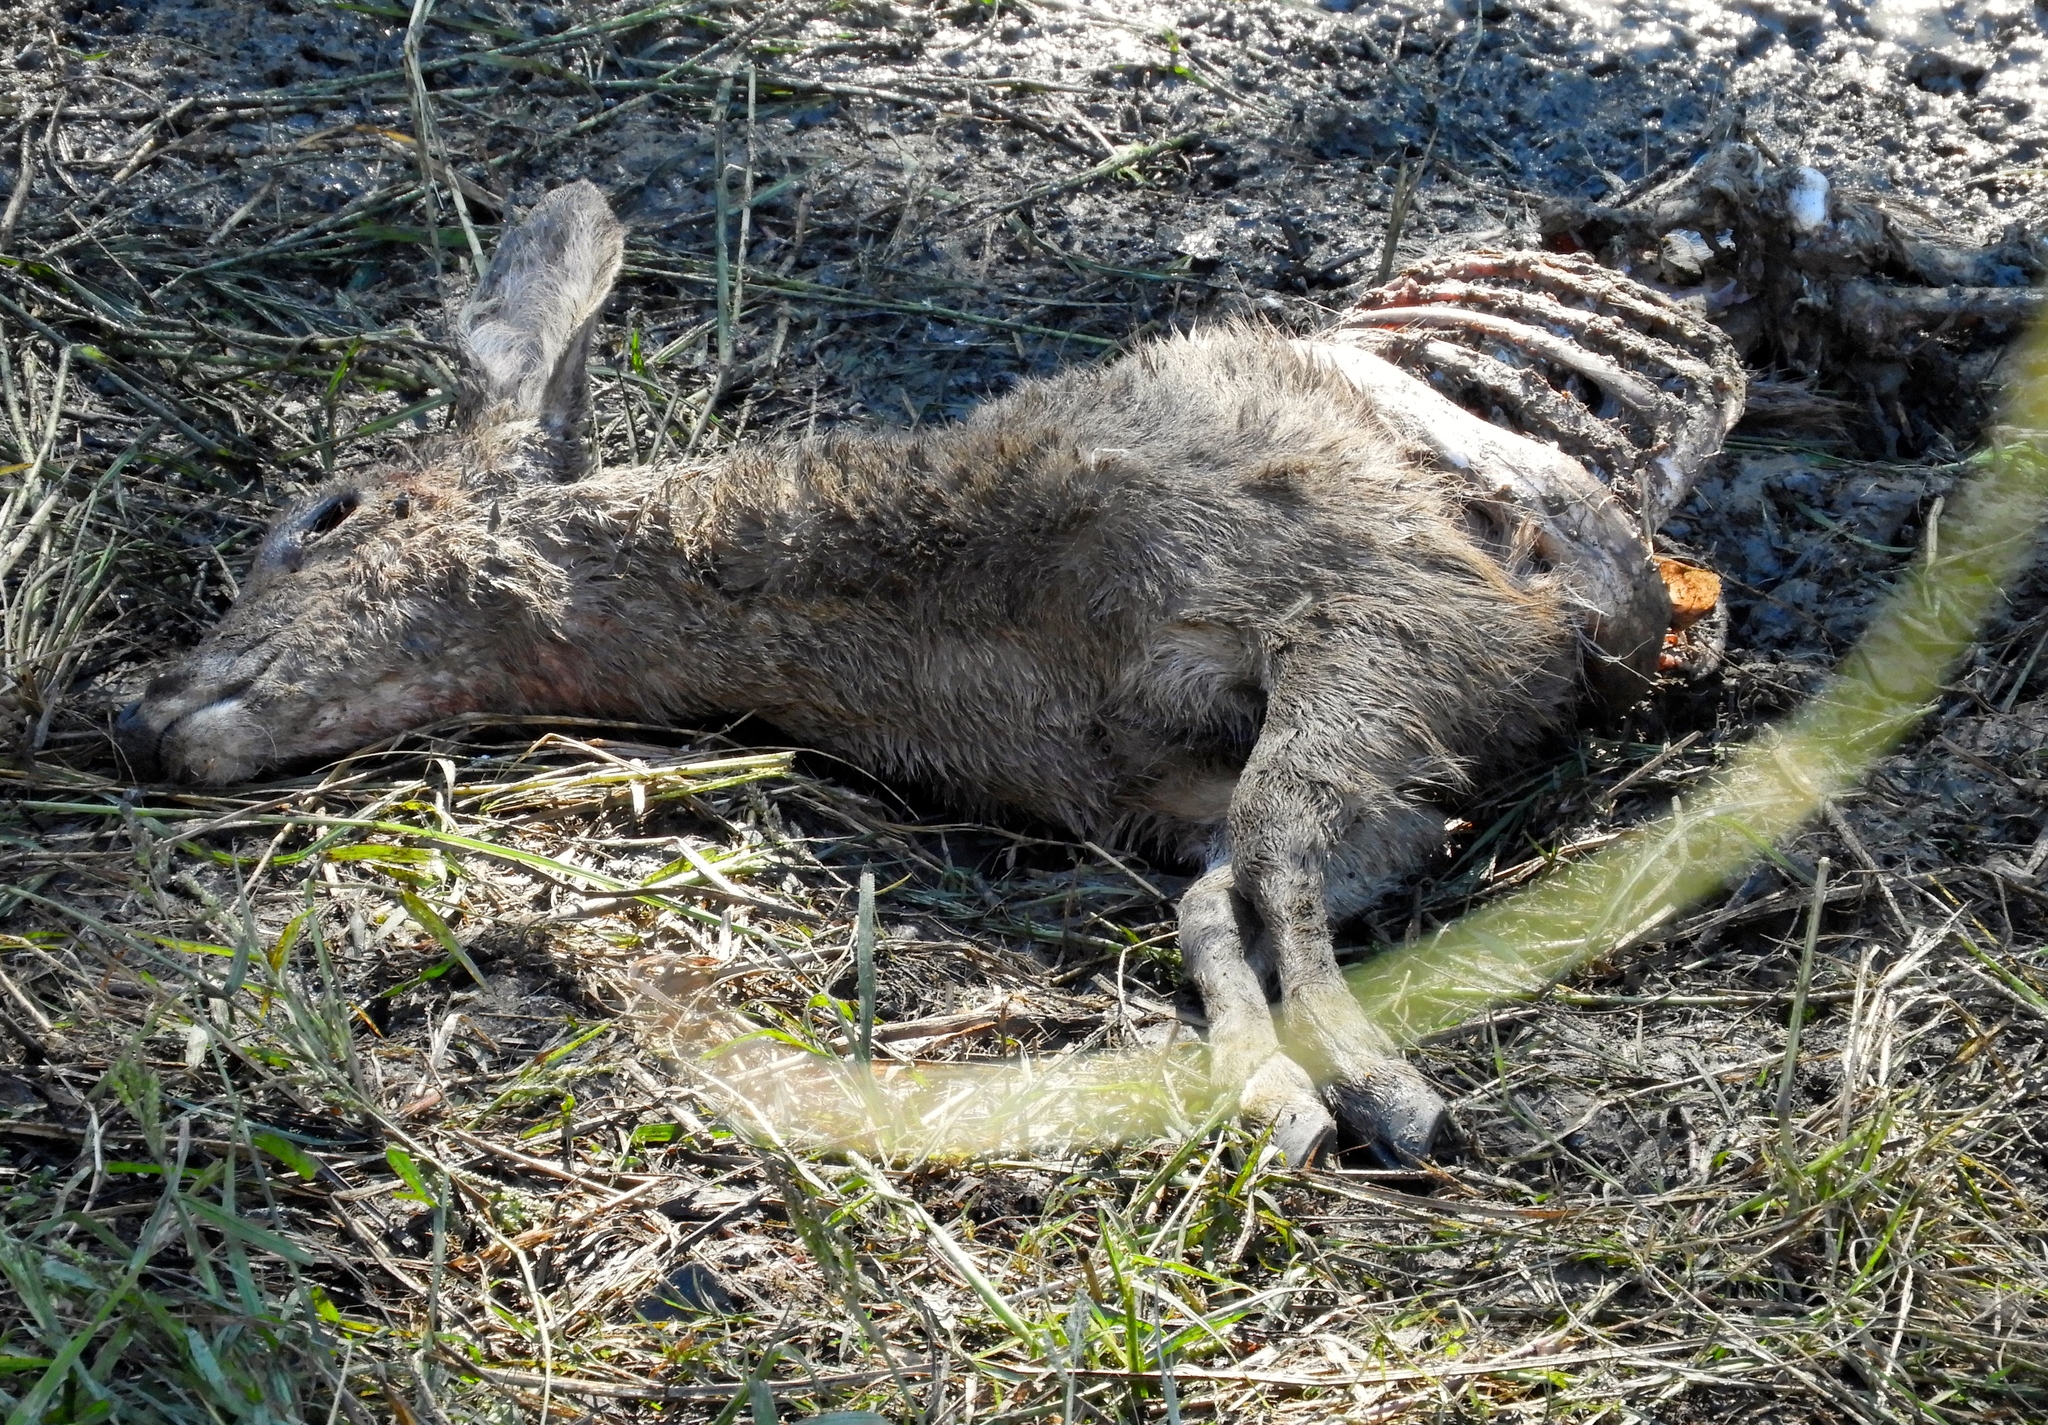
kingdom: Animalia
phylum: Chordata
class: Mammalia
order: Artiodactyla
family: Cervidae
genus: Odocoileus
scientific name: Odocoileus virginianus
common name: White-tailed deer
